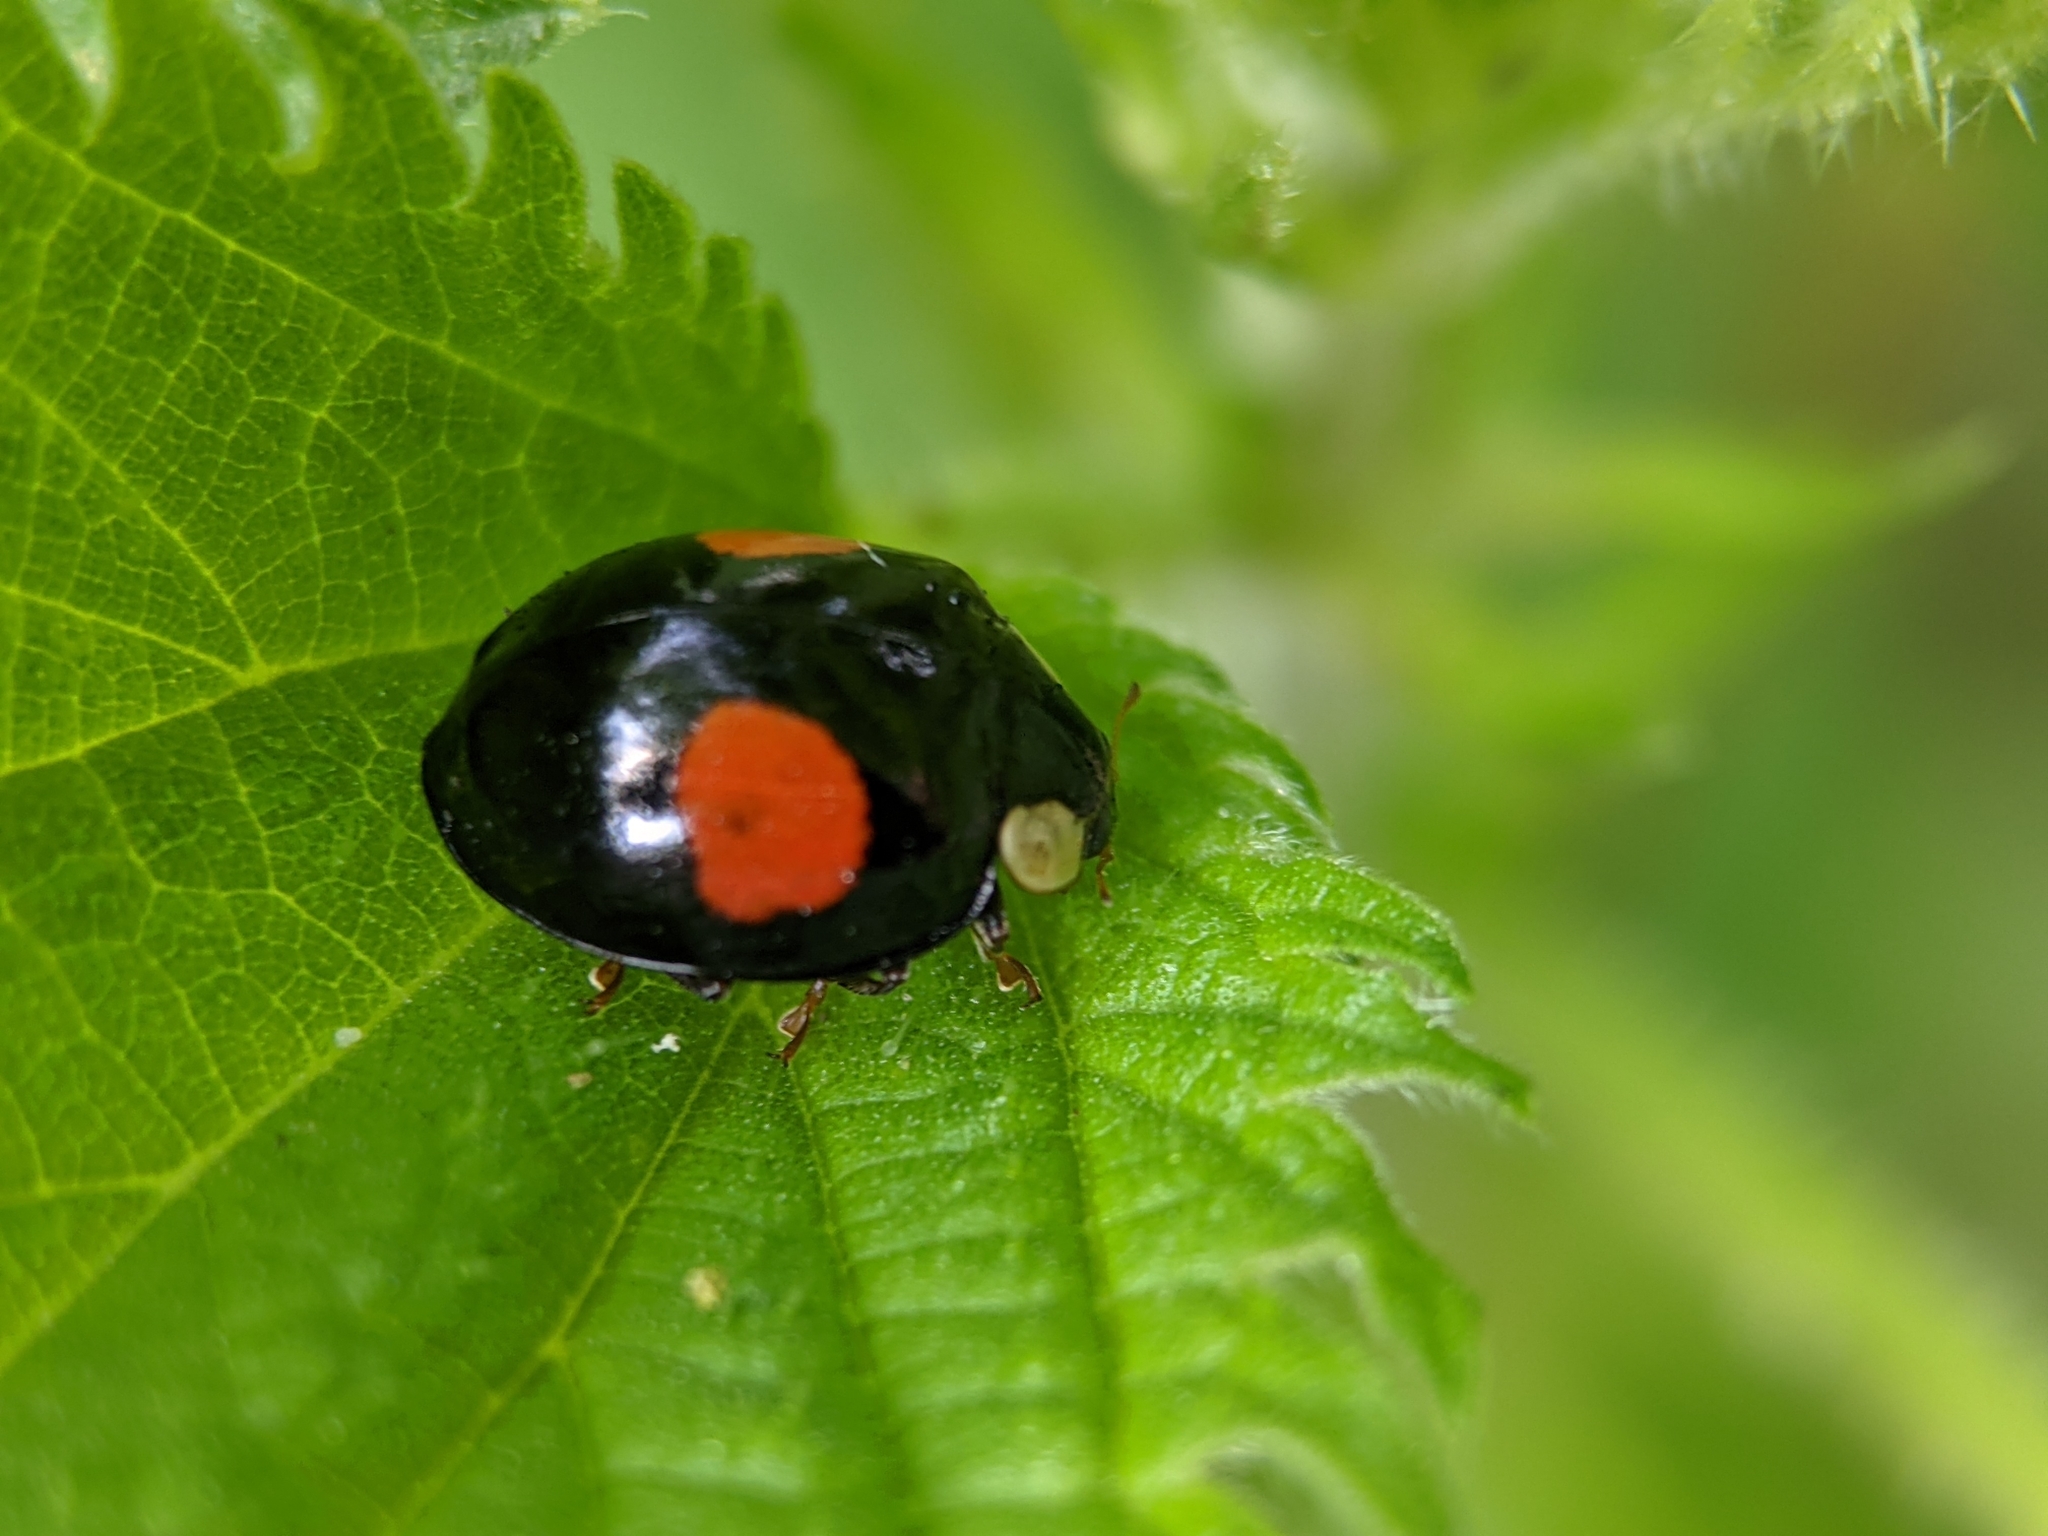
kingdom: Animalia
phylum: Arthropoda
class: Insecta
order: Coleoptera
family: Coccinellidae
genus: Harmonia
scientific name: Harmonia axyridis
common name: Harlequin ladybird
